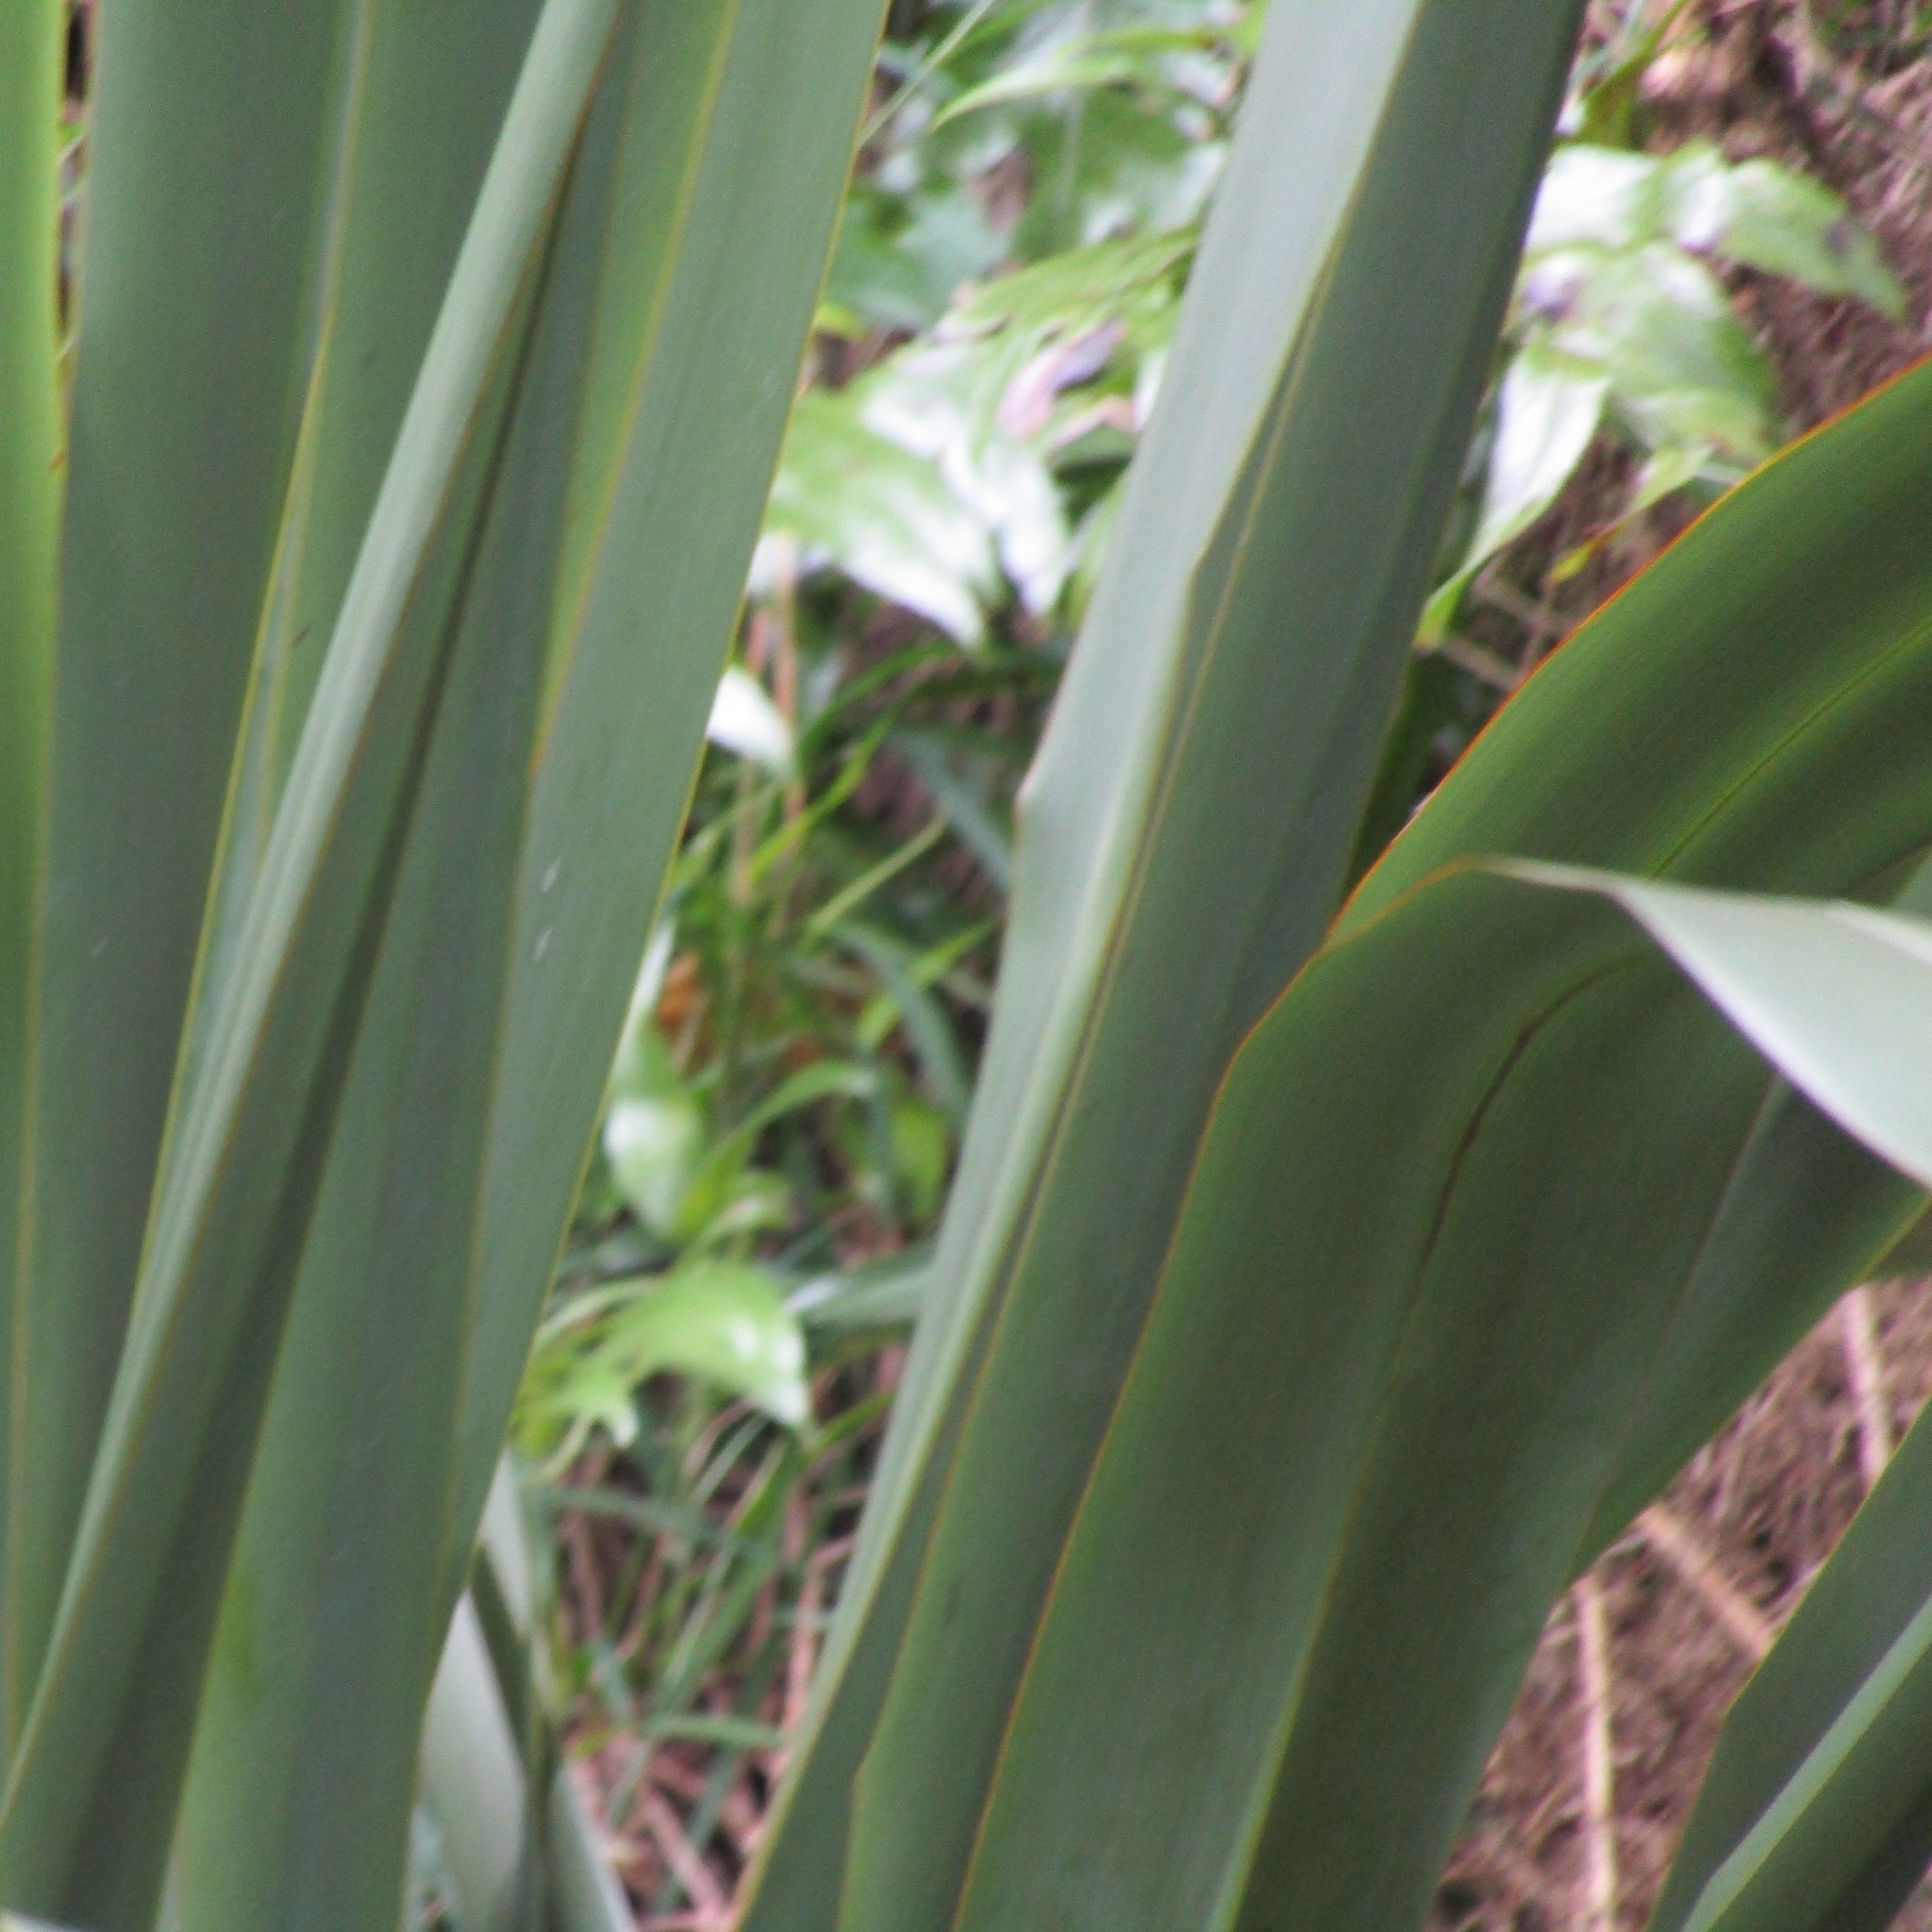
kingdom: Plantae
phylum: Tracheophyta
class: Liliopsida
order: Asparagales
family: Asphodelaceae
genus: Phormium
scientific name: Phormium tenax
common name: New zealand flax
